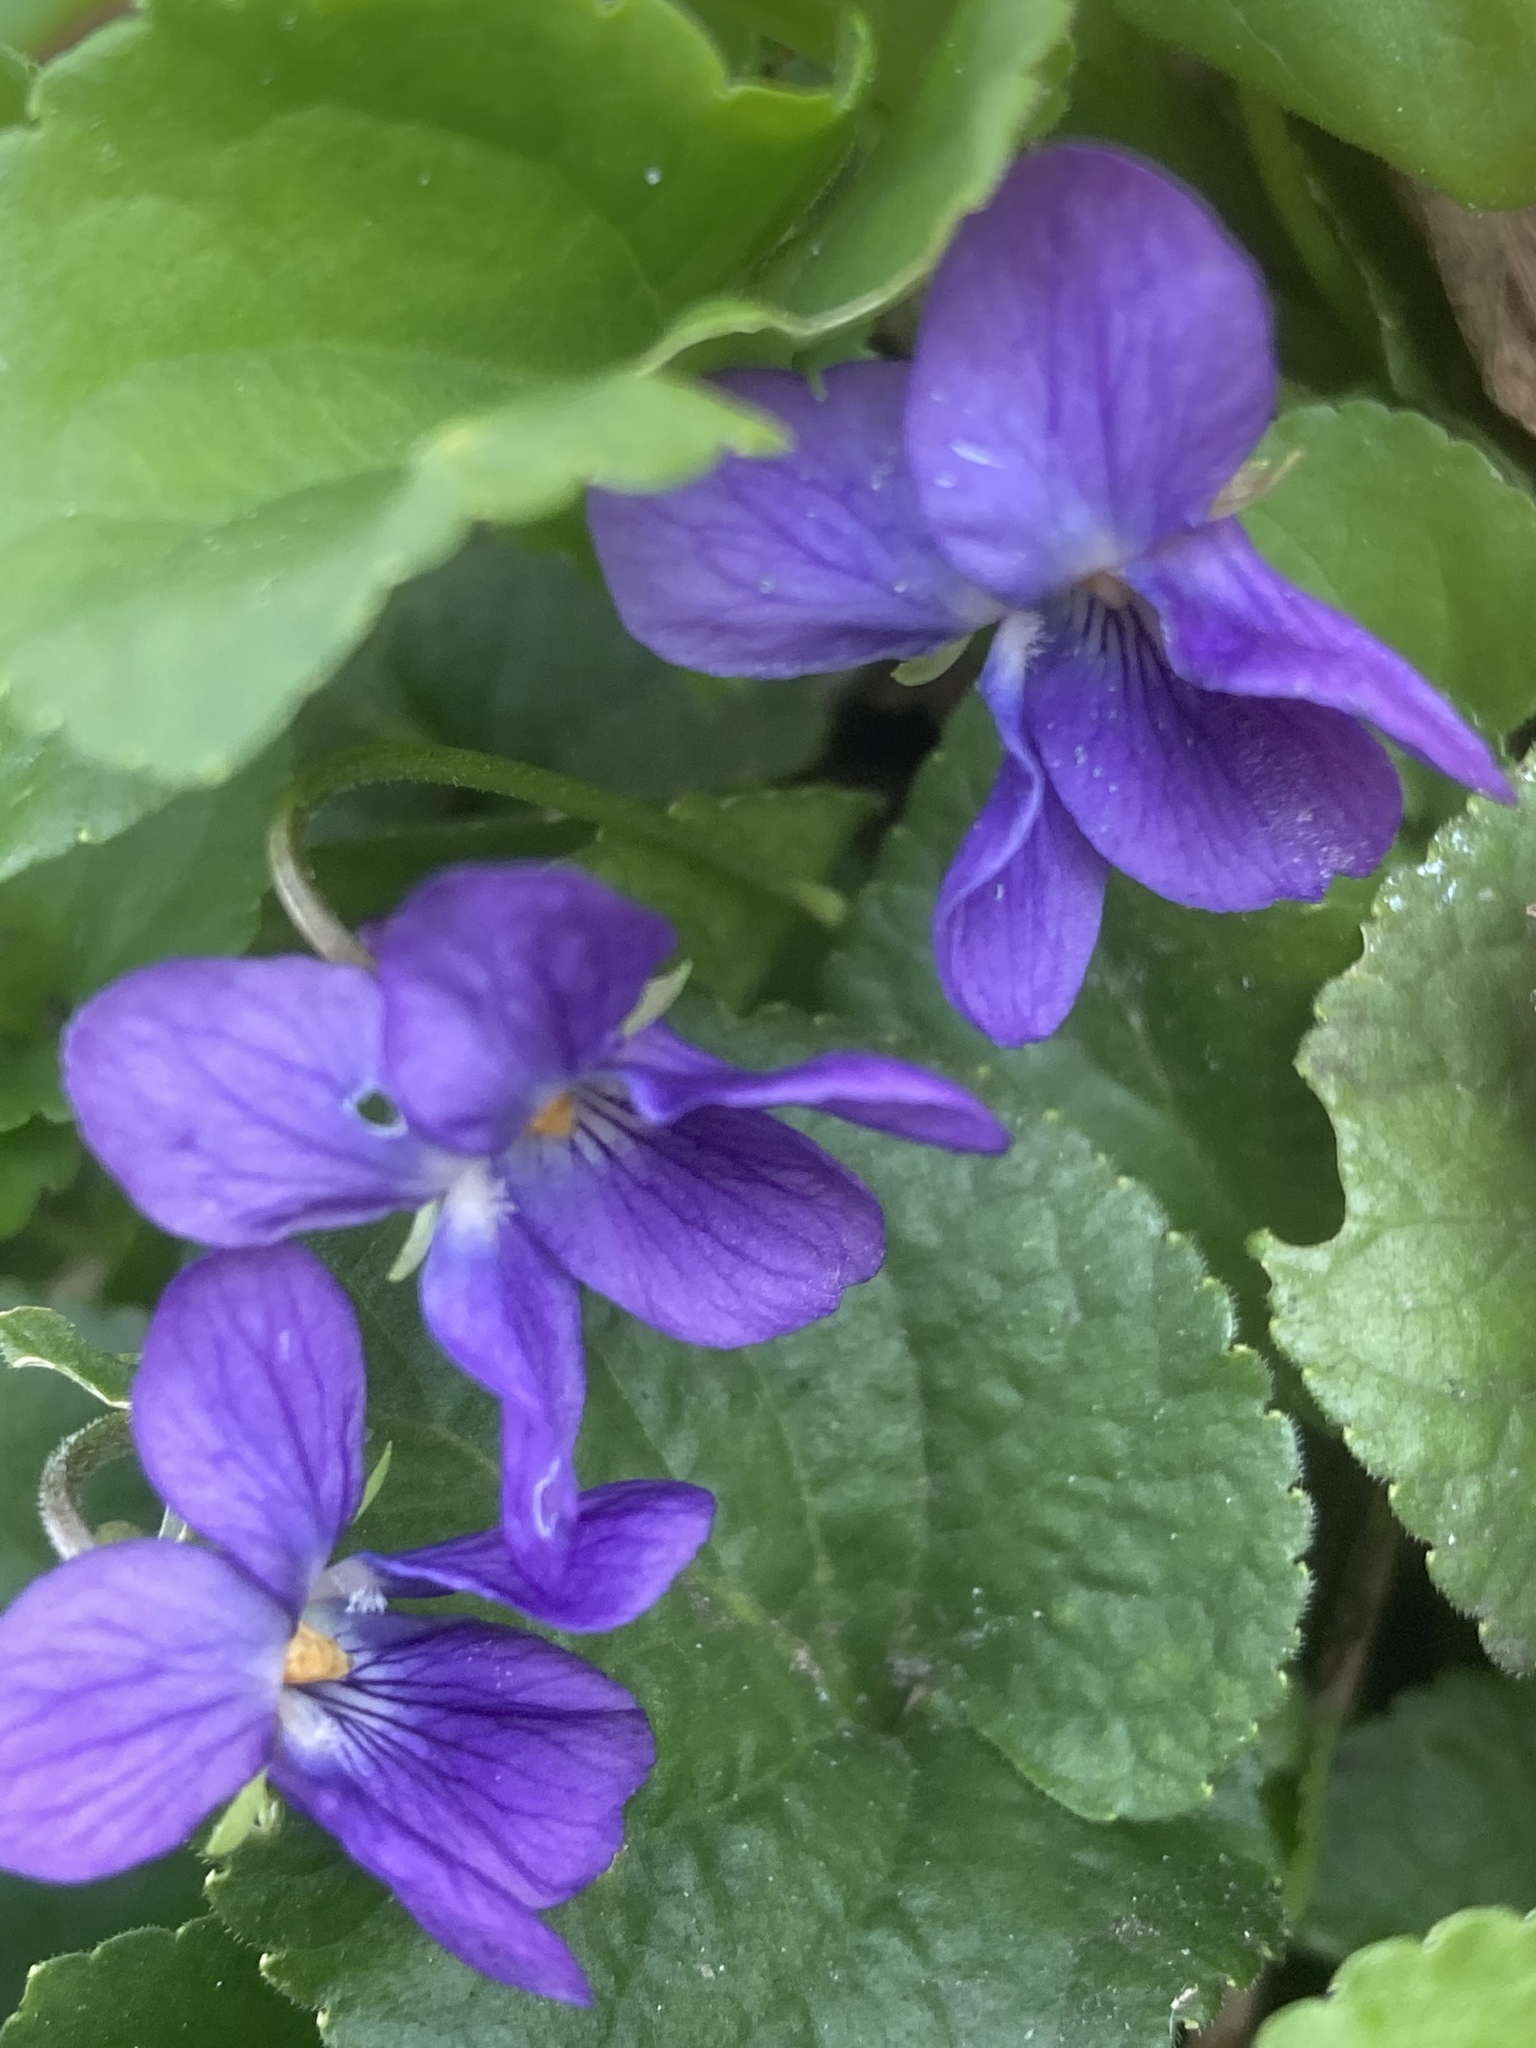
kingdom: Plantae
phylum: Tracheophyta
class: Magnoliopsida
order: Malpighiales
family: Violaceae
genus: Viola
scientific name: Viola odorata
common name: Sweet violet
